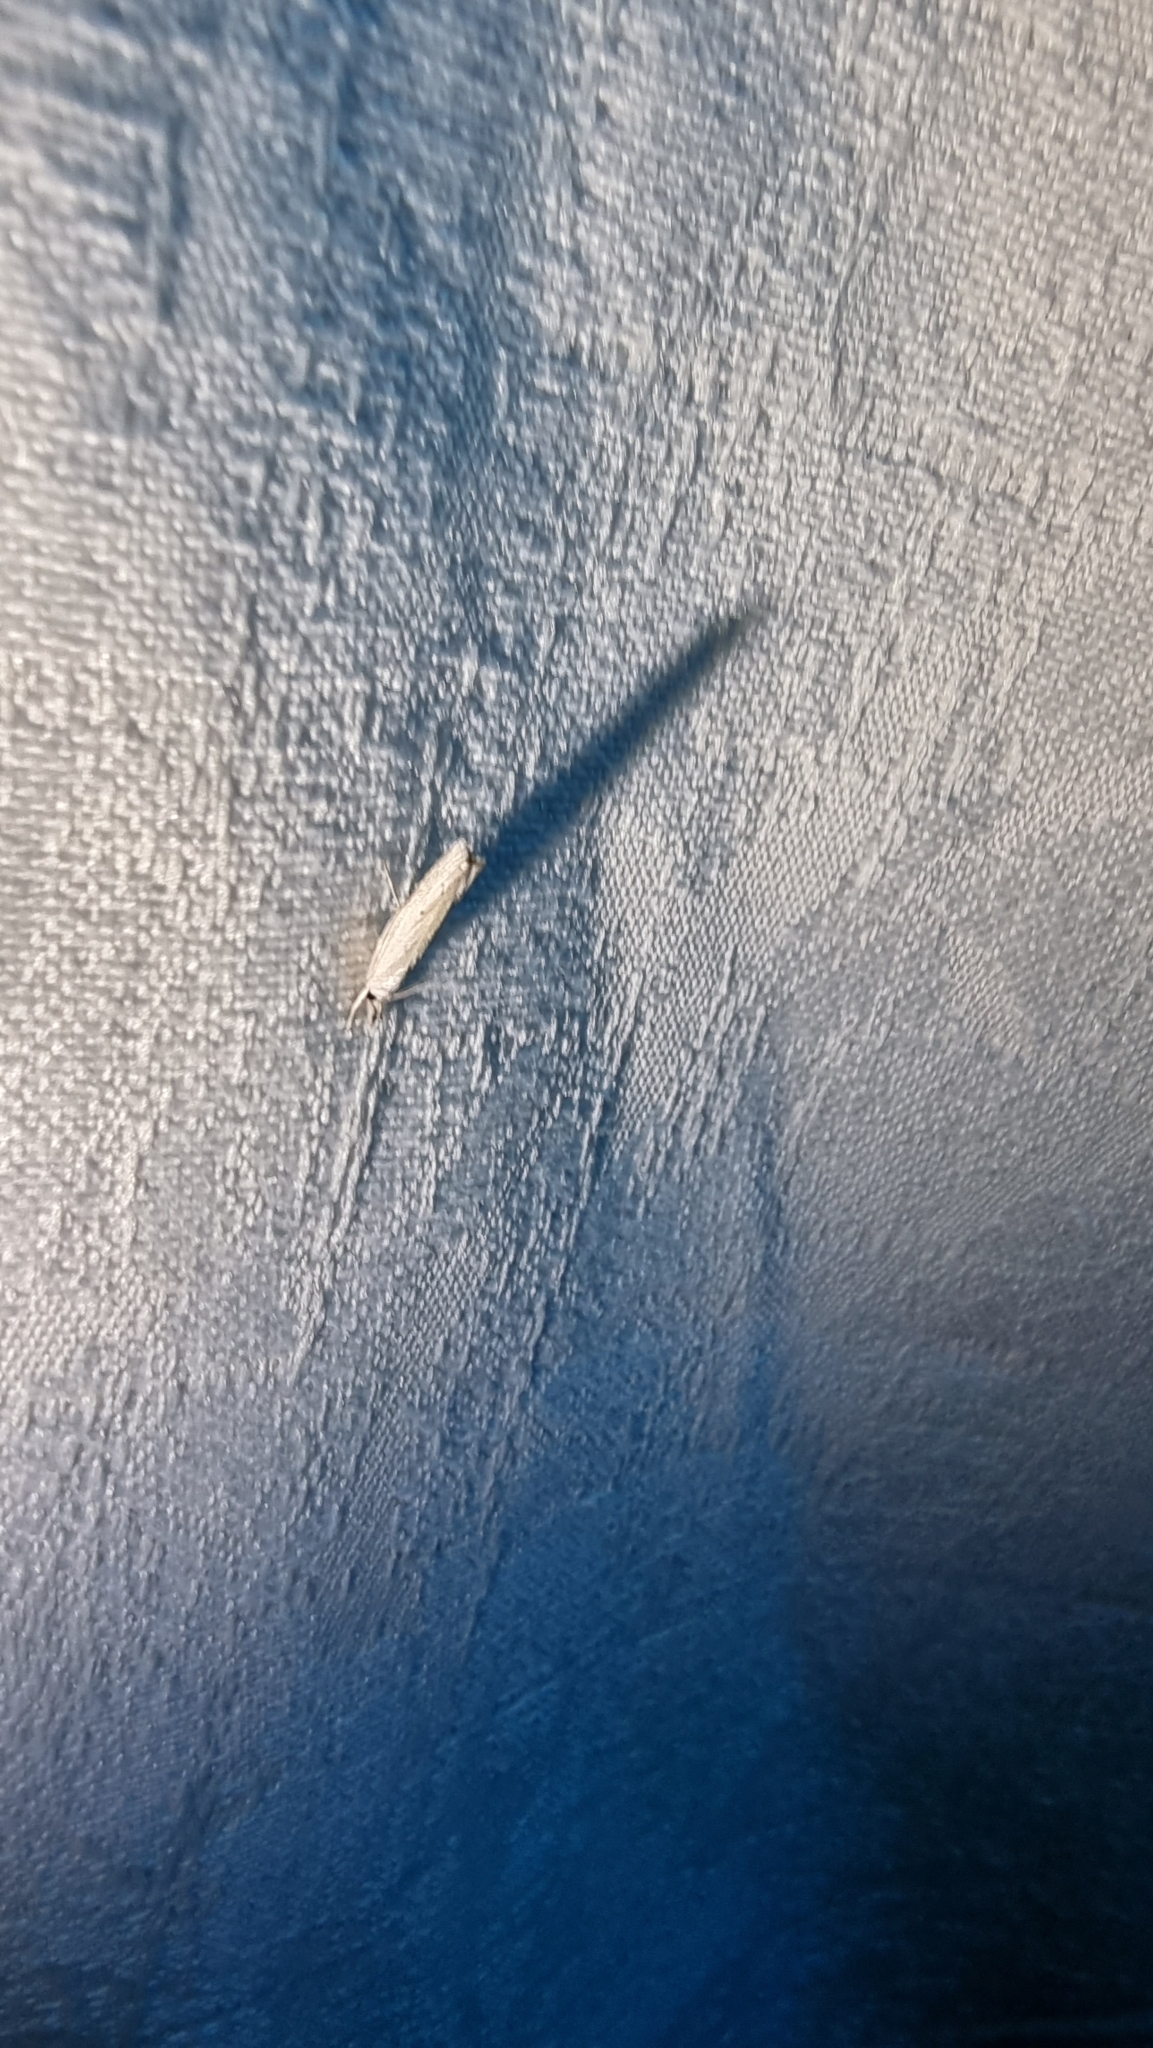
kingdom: Animalia
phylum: Arthropoda
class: Insecta
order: Lepidoptera
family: Crambidae
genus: Culladia
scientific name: Culladia cuneiferellus
